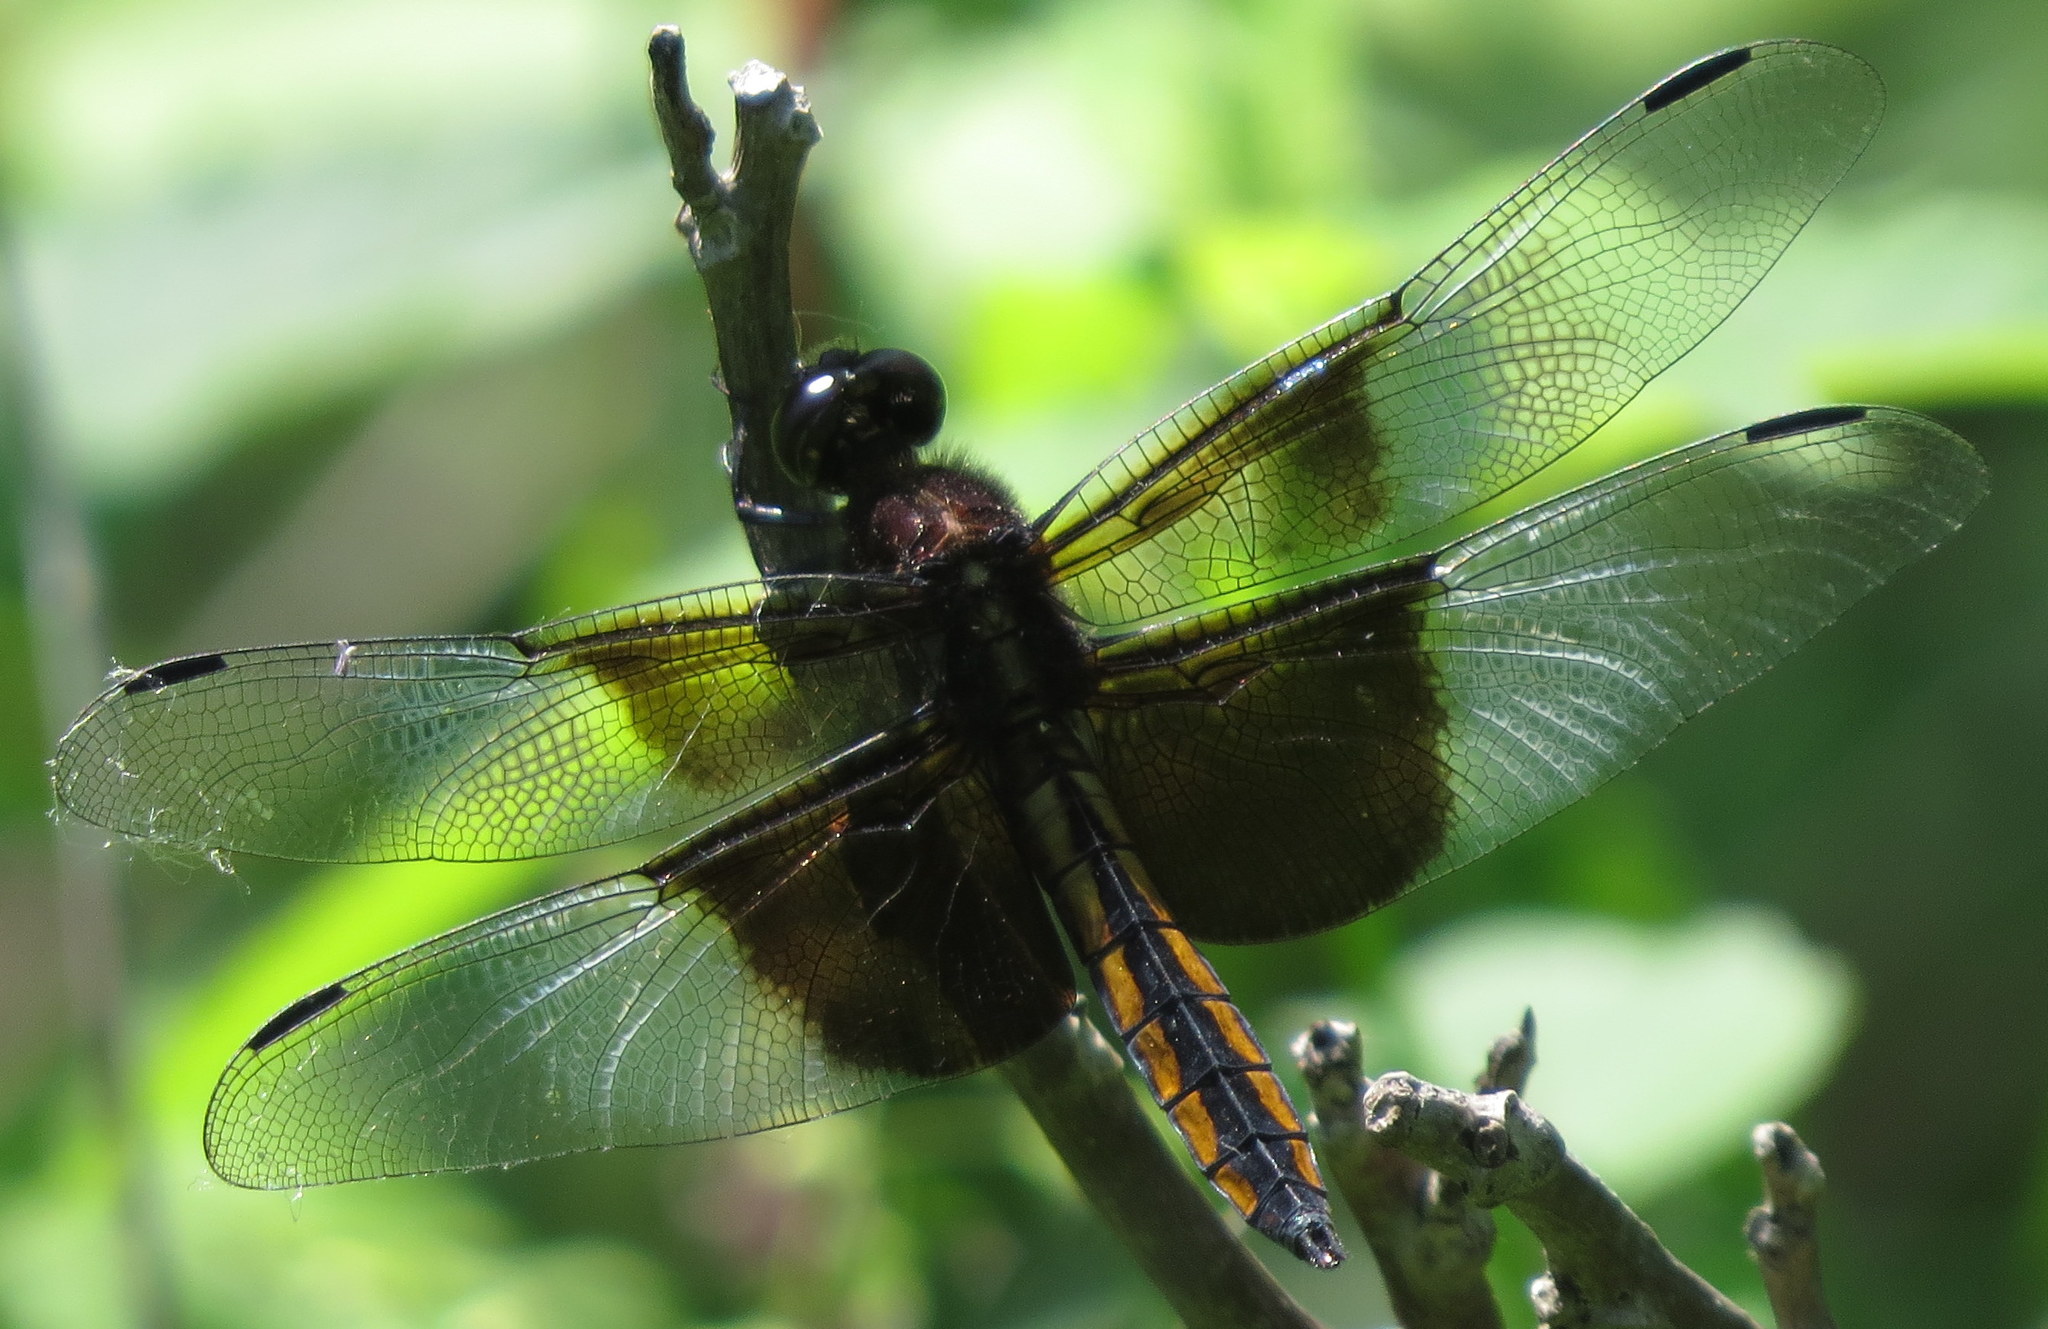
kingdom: Animalia
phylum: Arthropoda
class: Insecta
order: Odonata
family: Libellulidae
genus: Libellula
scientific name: Libellula luctuosa
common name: Widow skimmer
